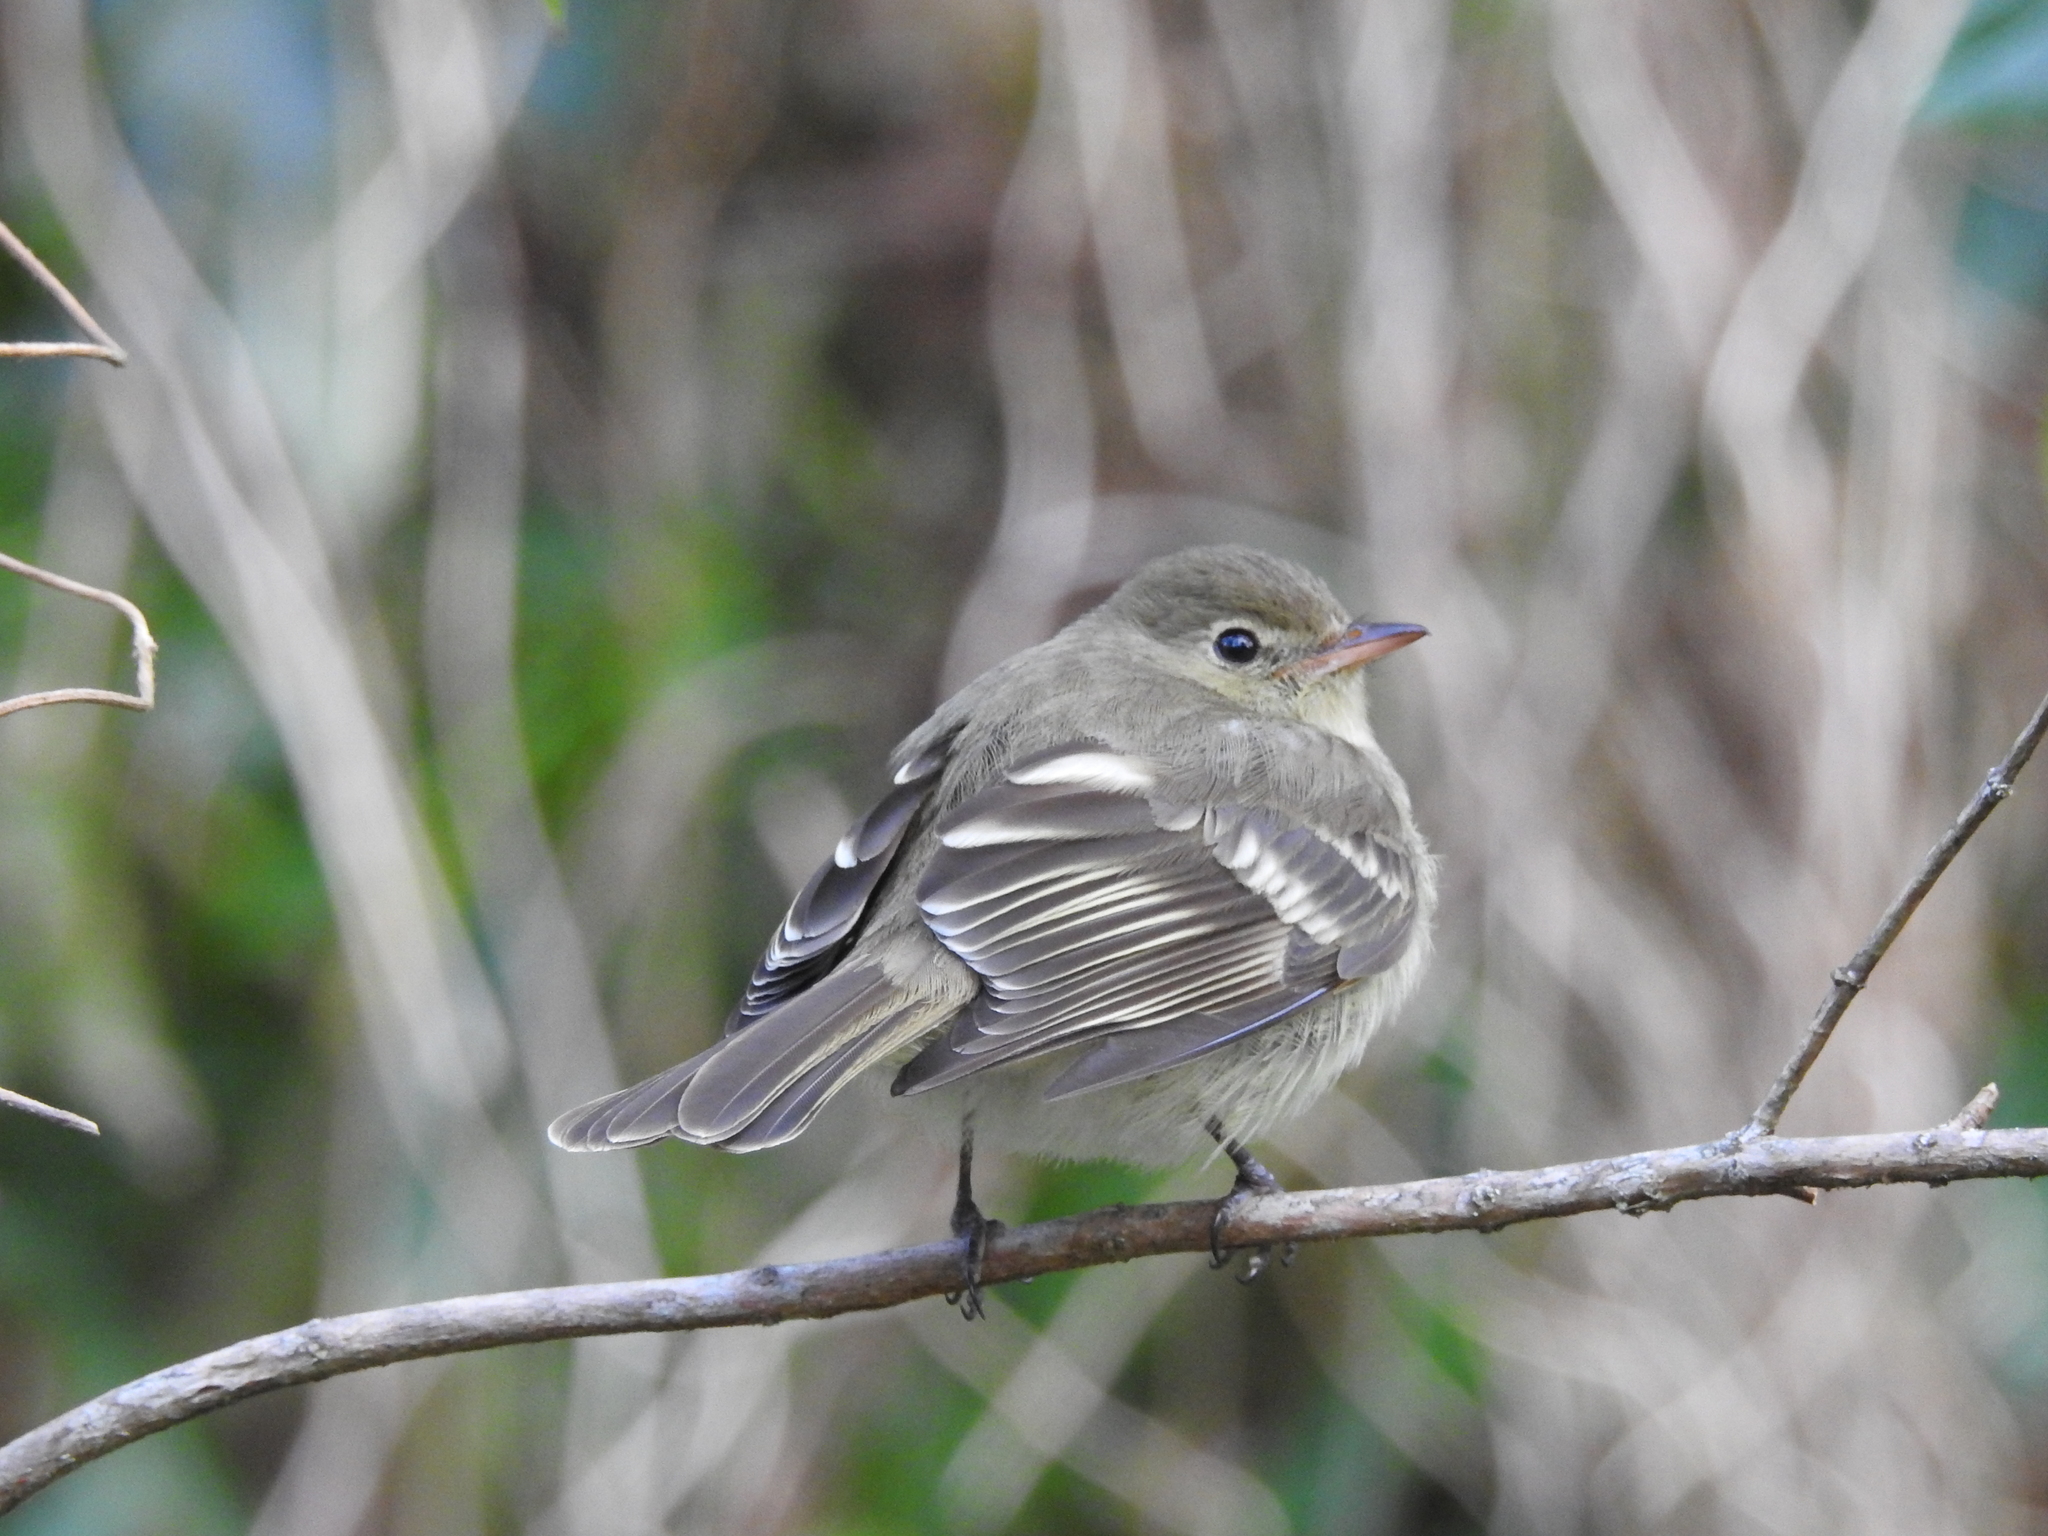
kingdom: Animalia
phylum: Chordata
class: Aves
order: Passeriformes
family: Tyrannidae
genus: Elaenia
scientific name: Elaenia frantzii
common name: Mountain elaenia
